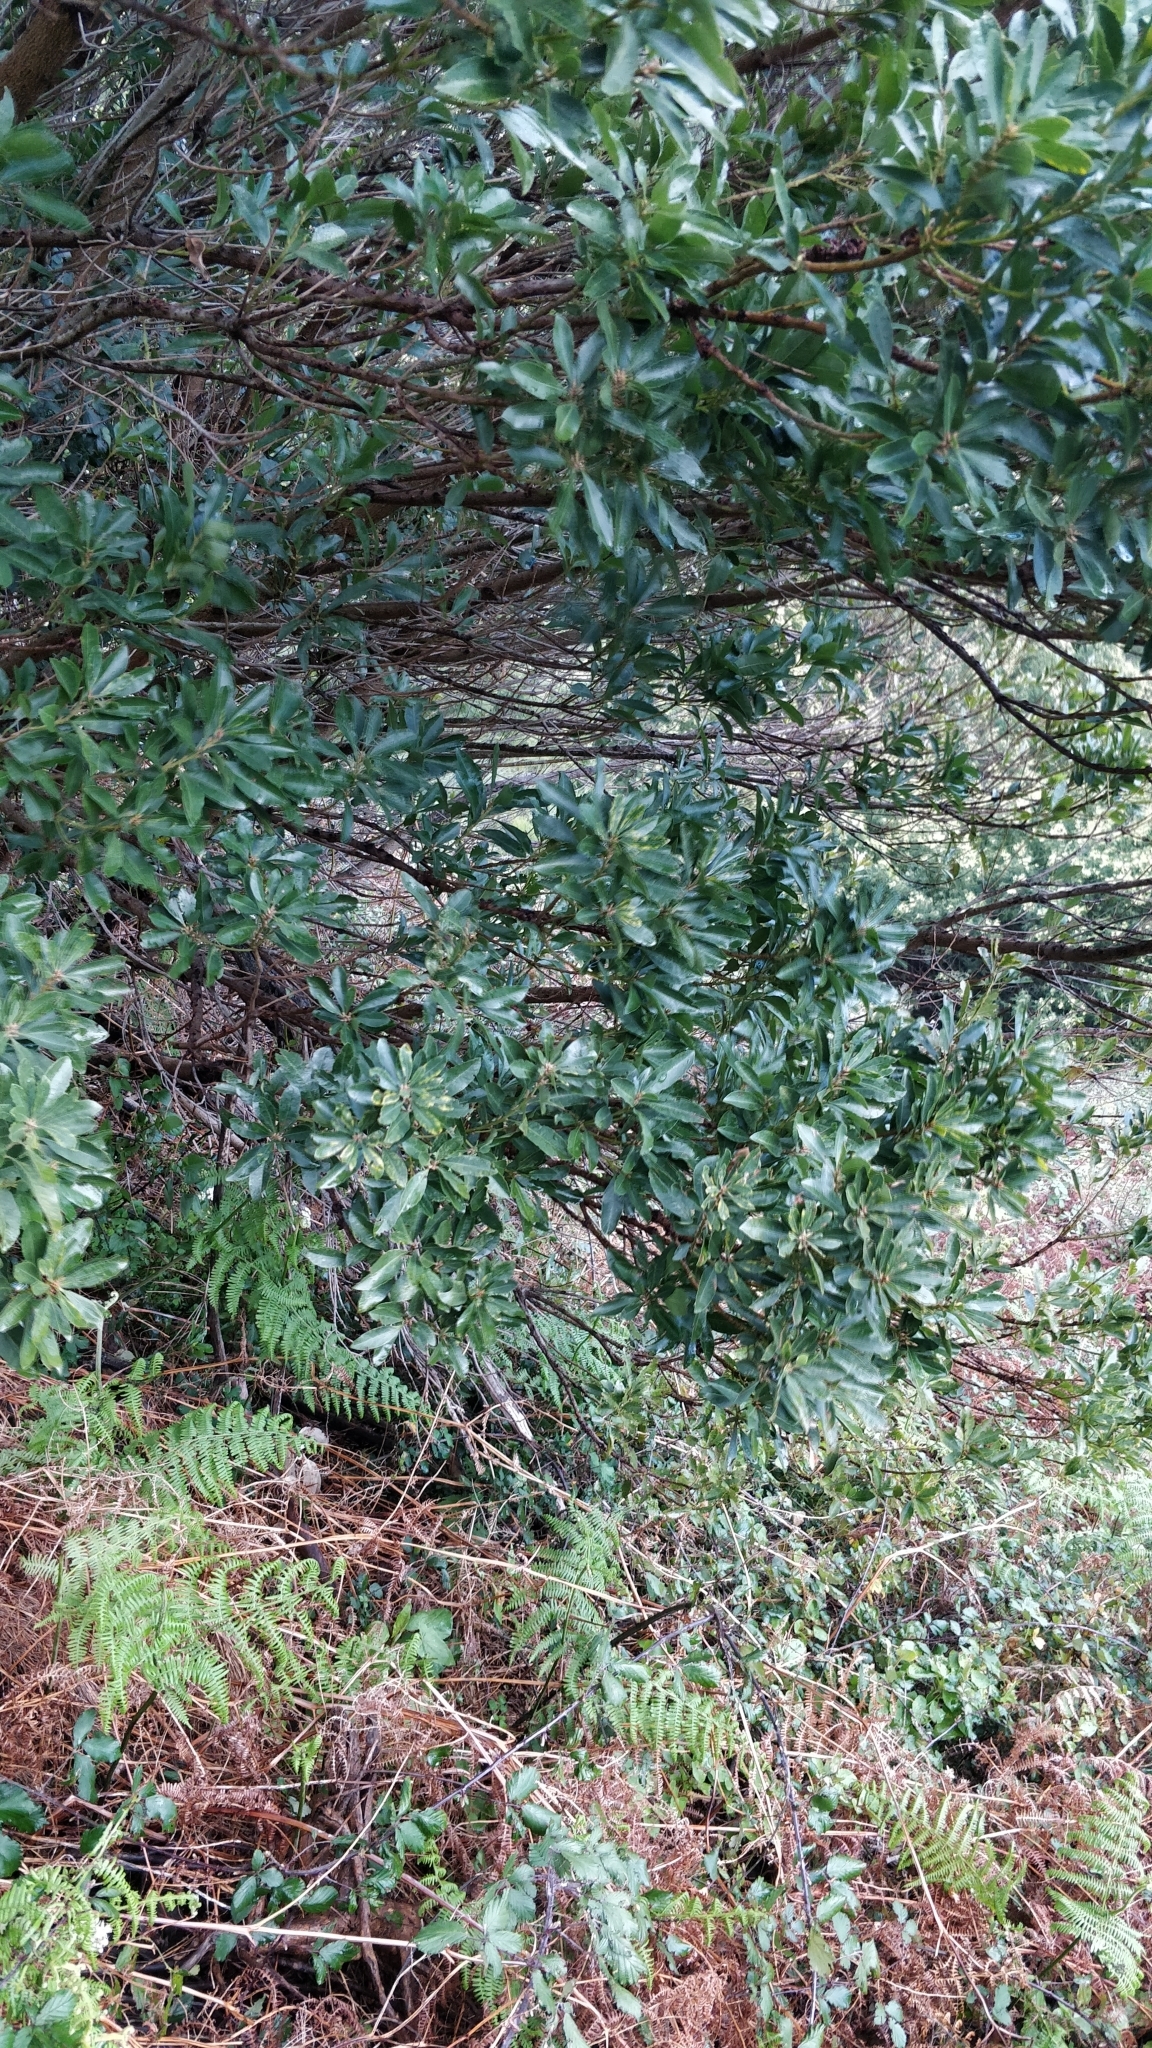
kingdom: Plantae
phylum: Tracheophyta
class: Magnoliopsida
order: Fagales
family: Myricaceae
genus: Morella
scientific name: Morella faya
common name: Firetree
